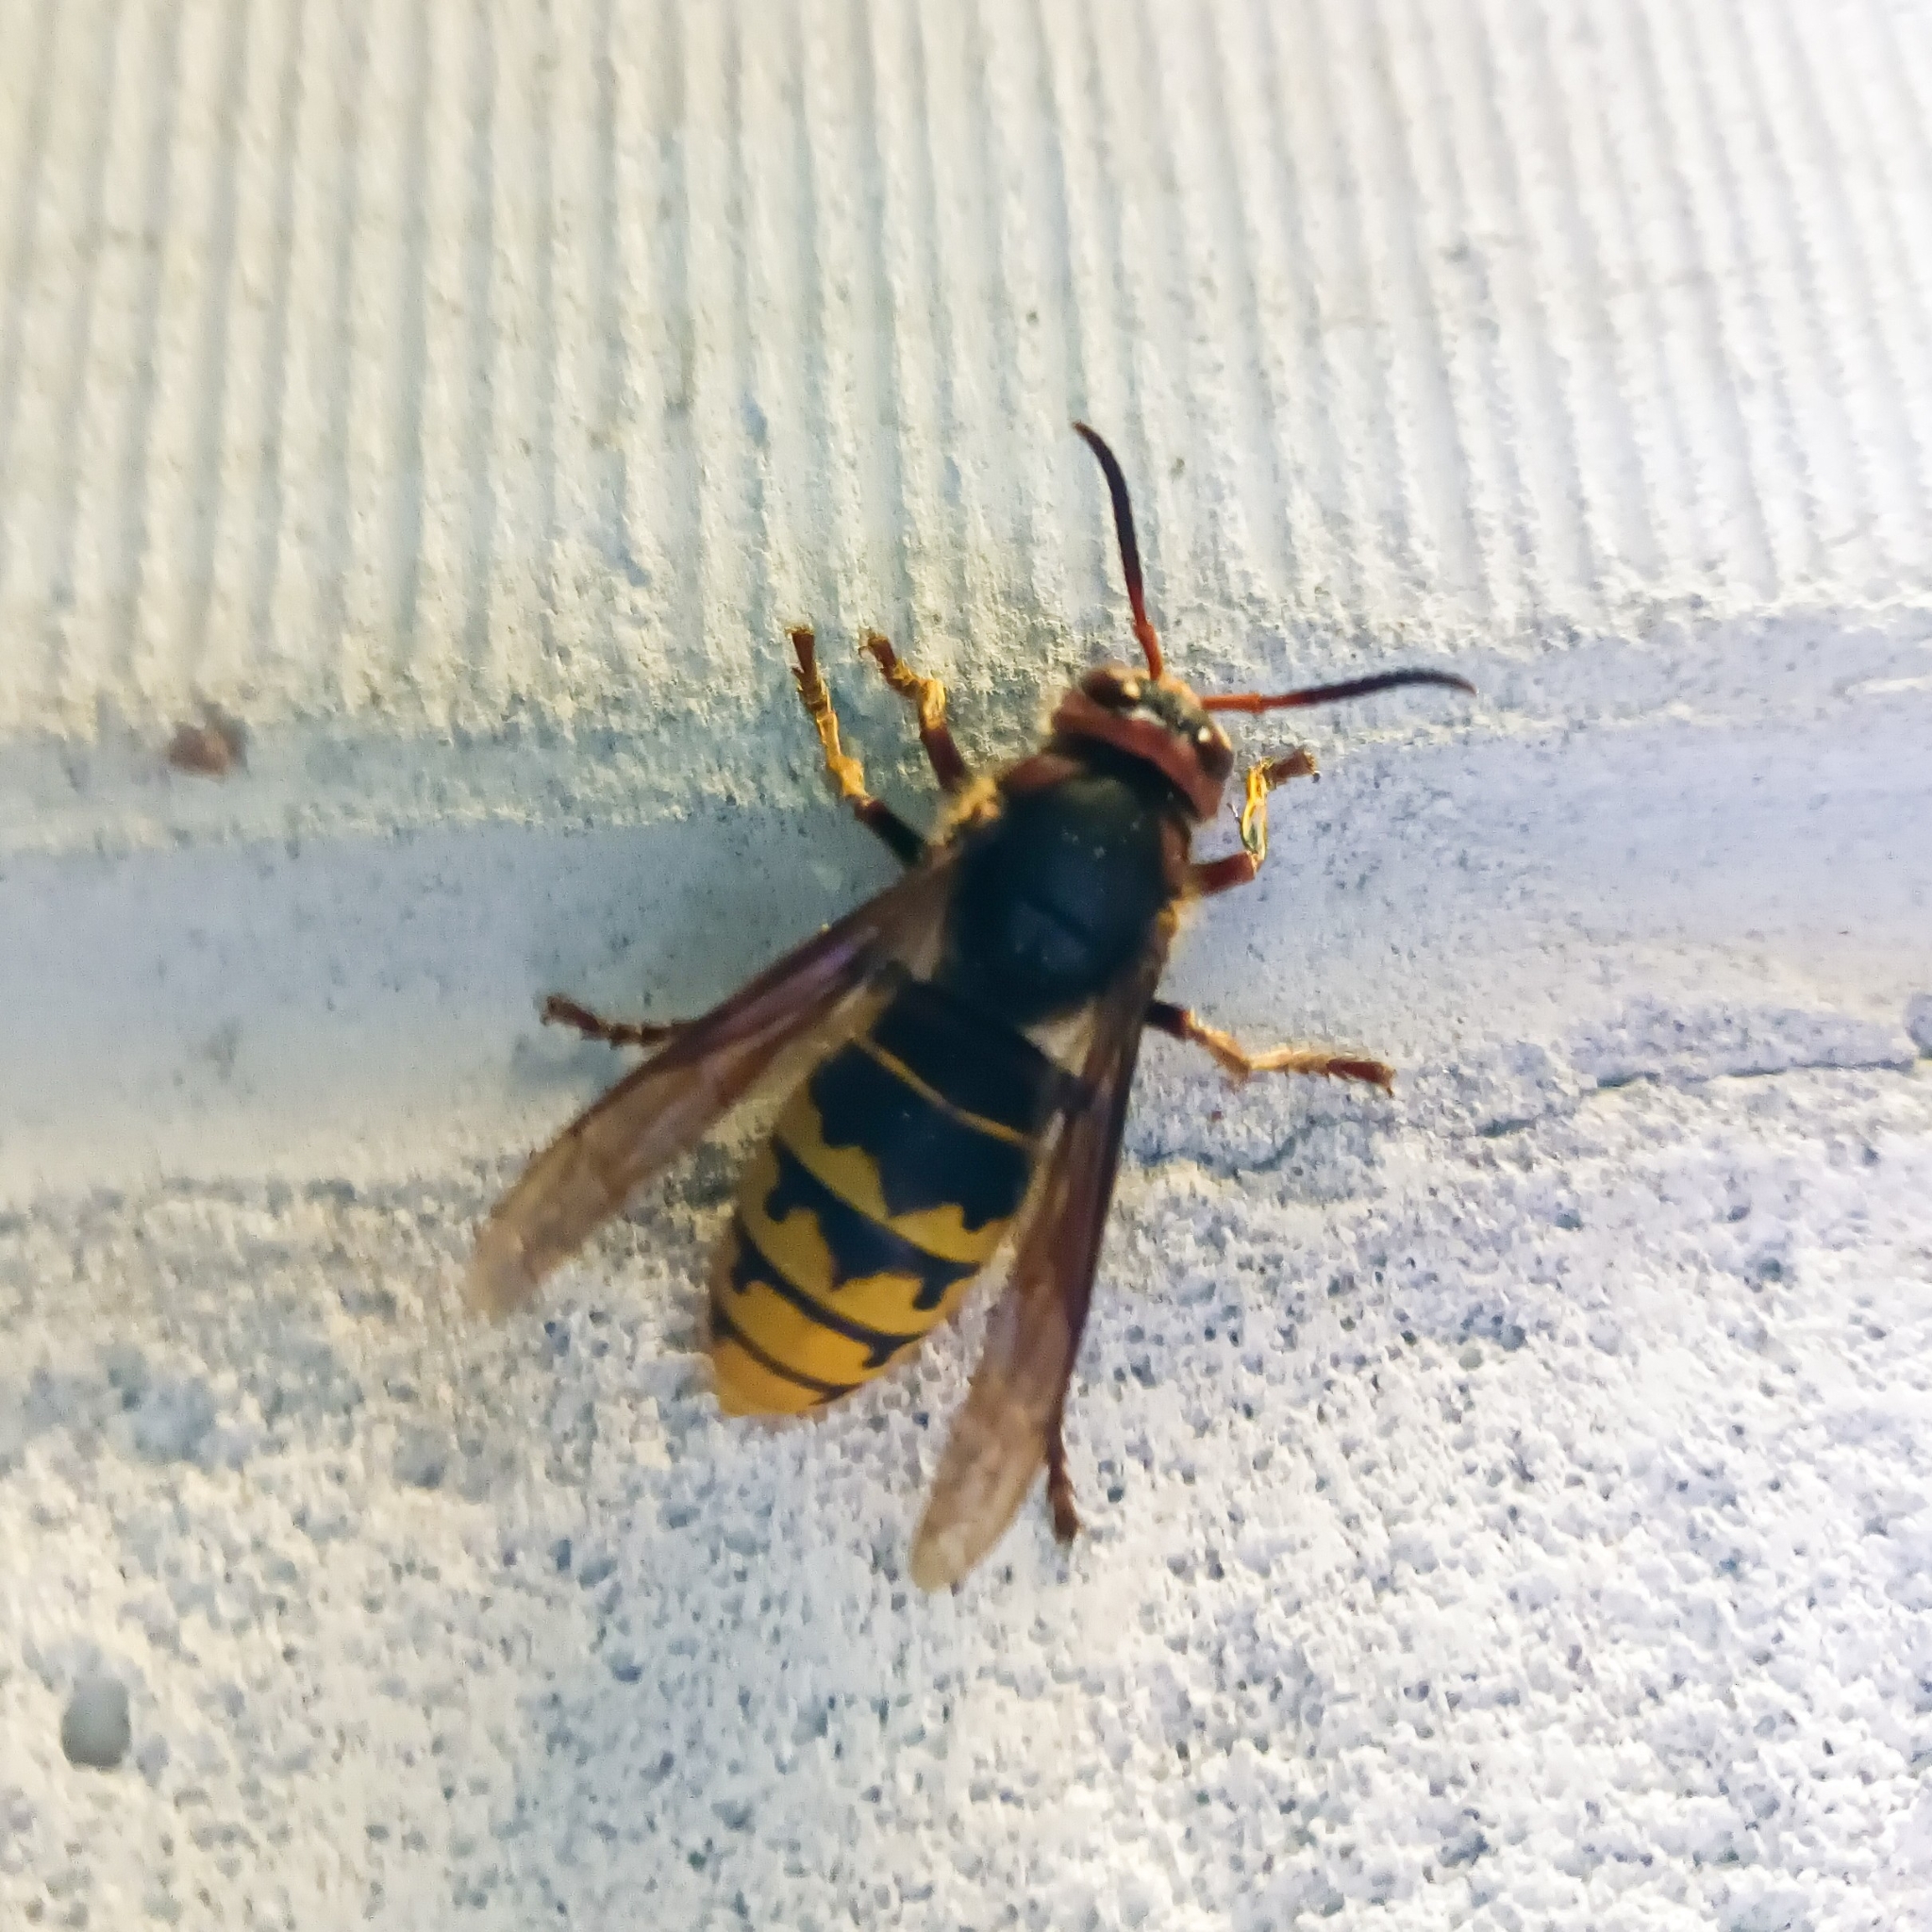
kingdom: Animalia
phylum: Arthropoda
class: Insecta
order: Hymenoptera
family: Vespidae
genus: Vespa
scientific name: Vespa crabro
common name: Hornet
